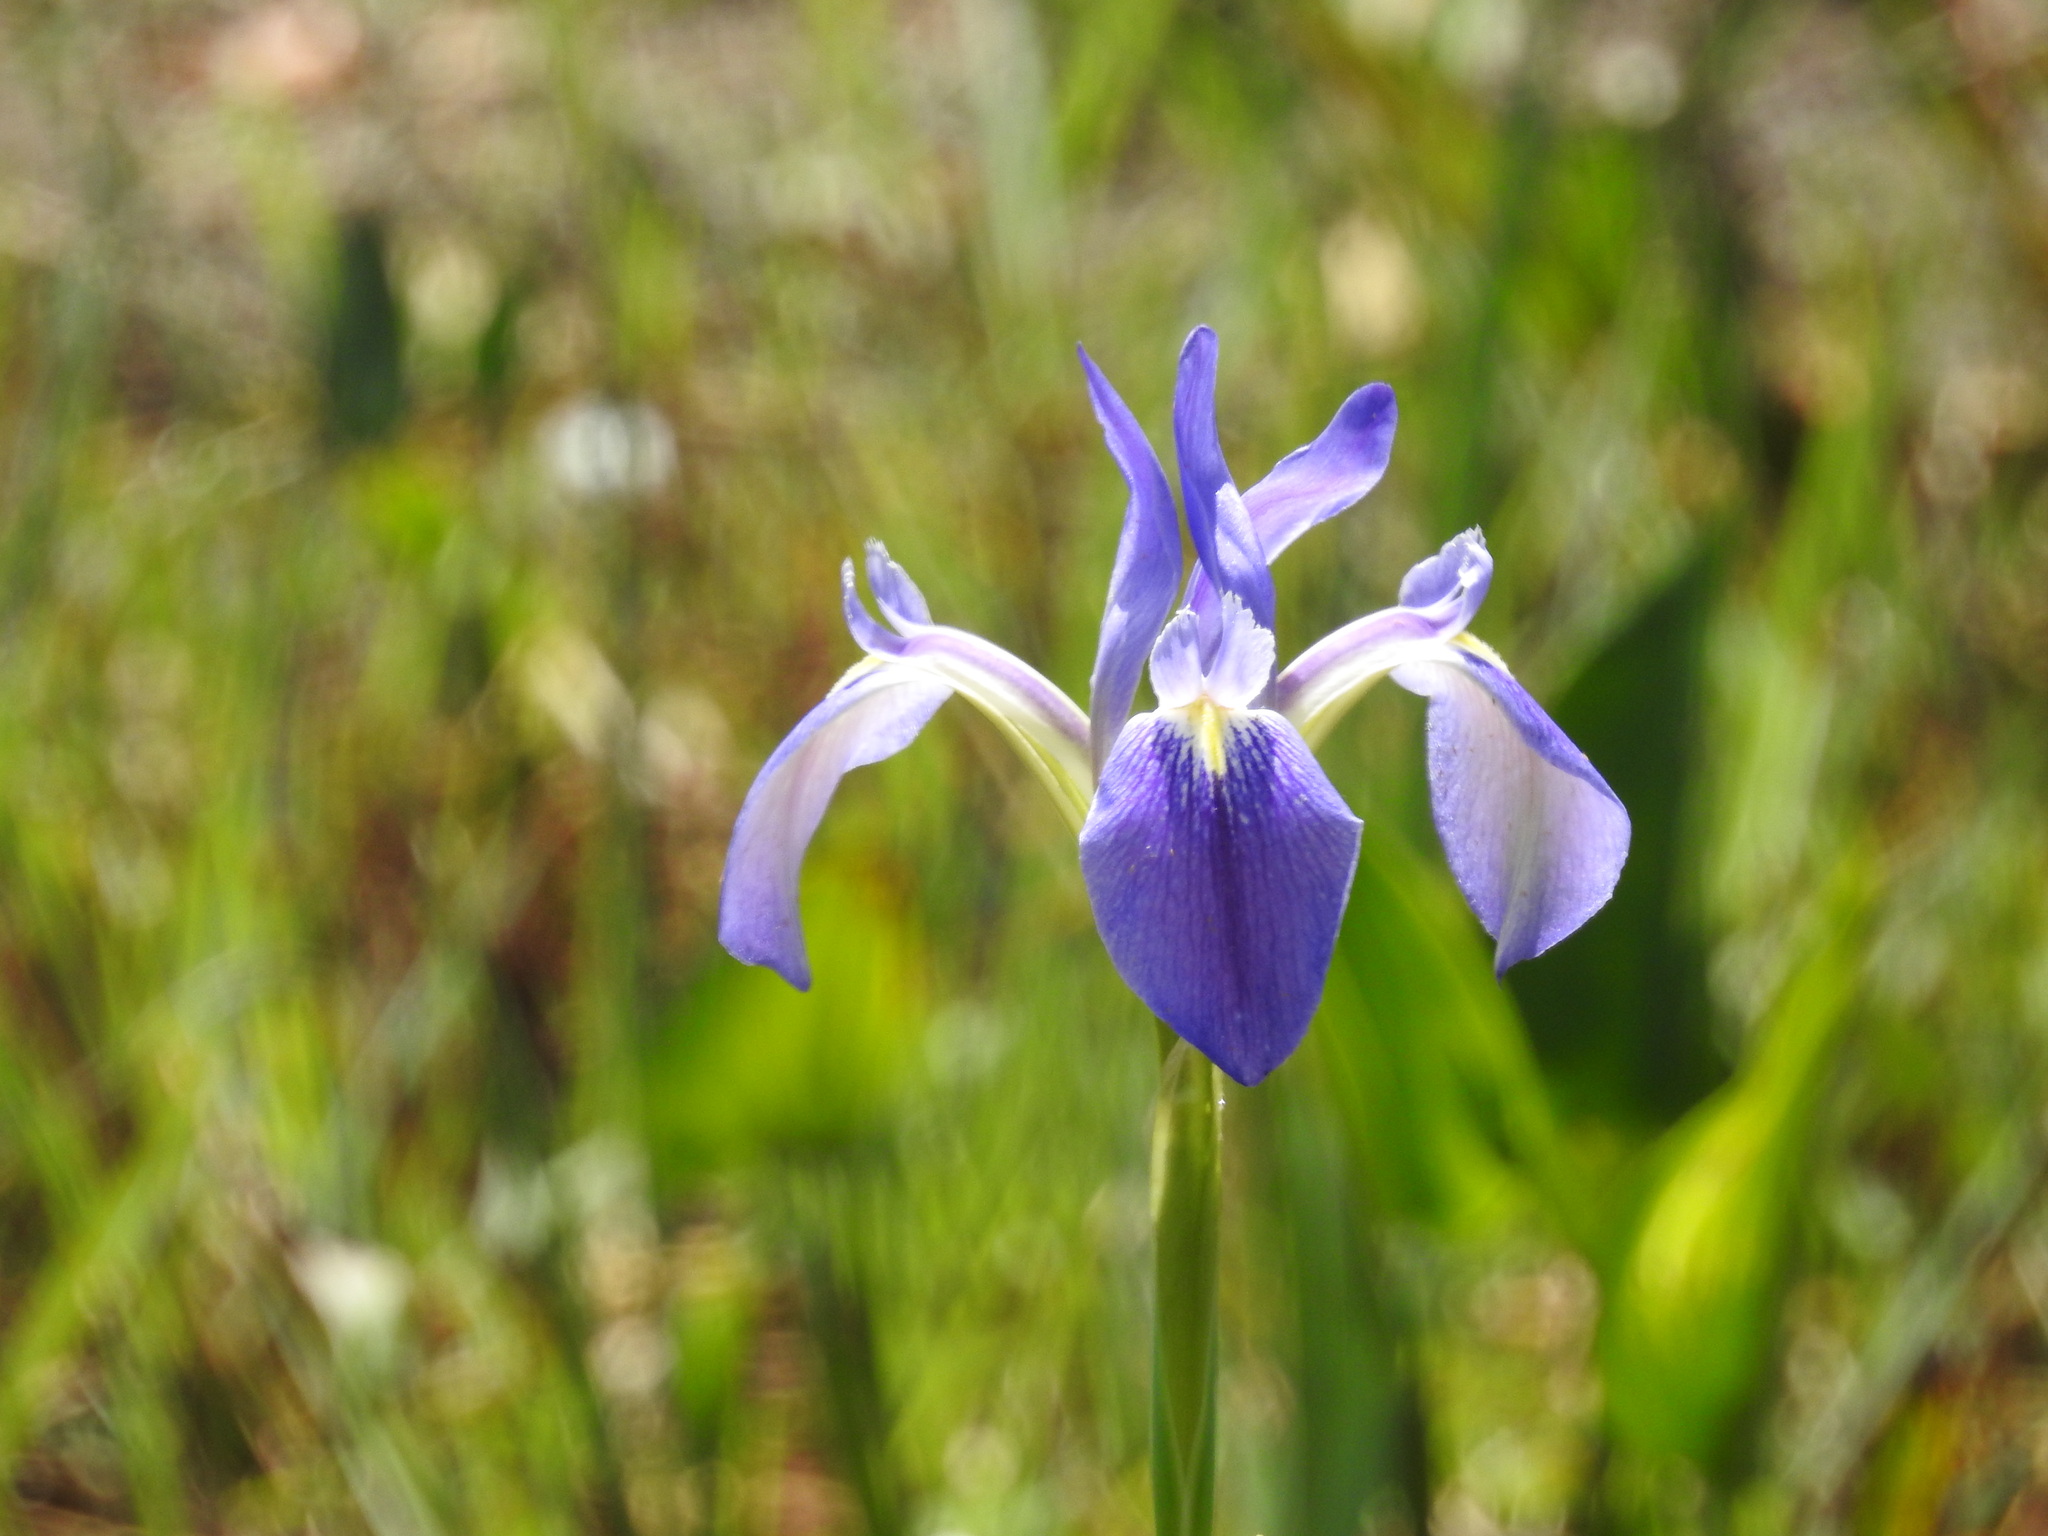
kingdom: Plantae
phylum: Tracheophyta
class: Liliopsida
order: Asparagales
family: Iridaceae
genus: Iris
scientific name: Iris savannarum
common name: Prairie iris
